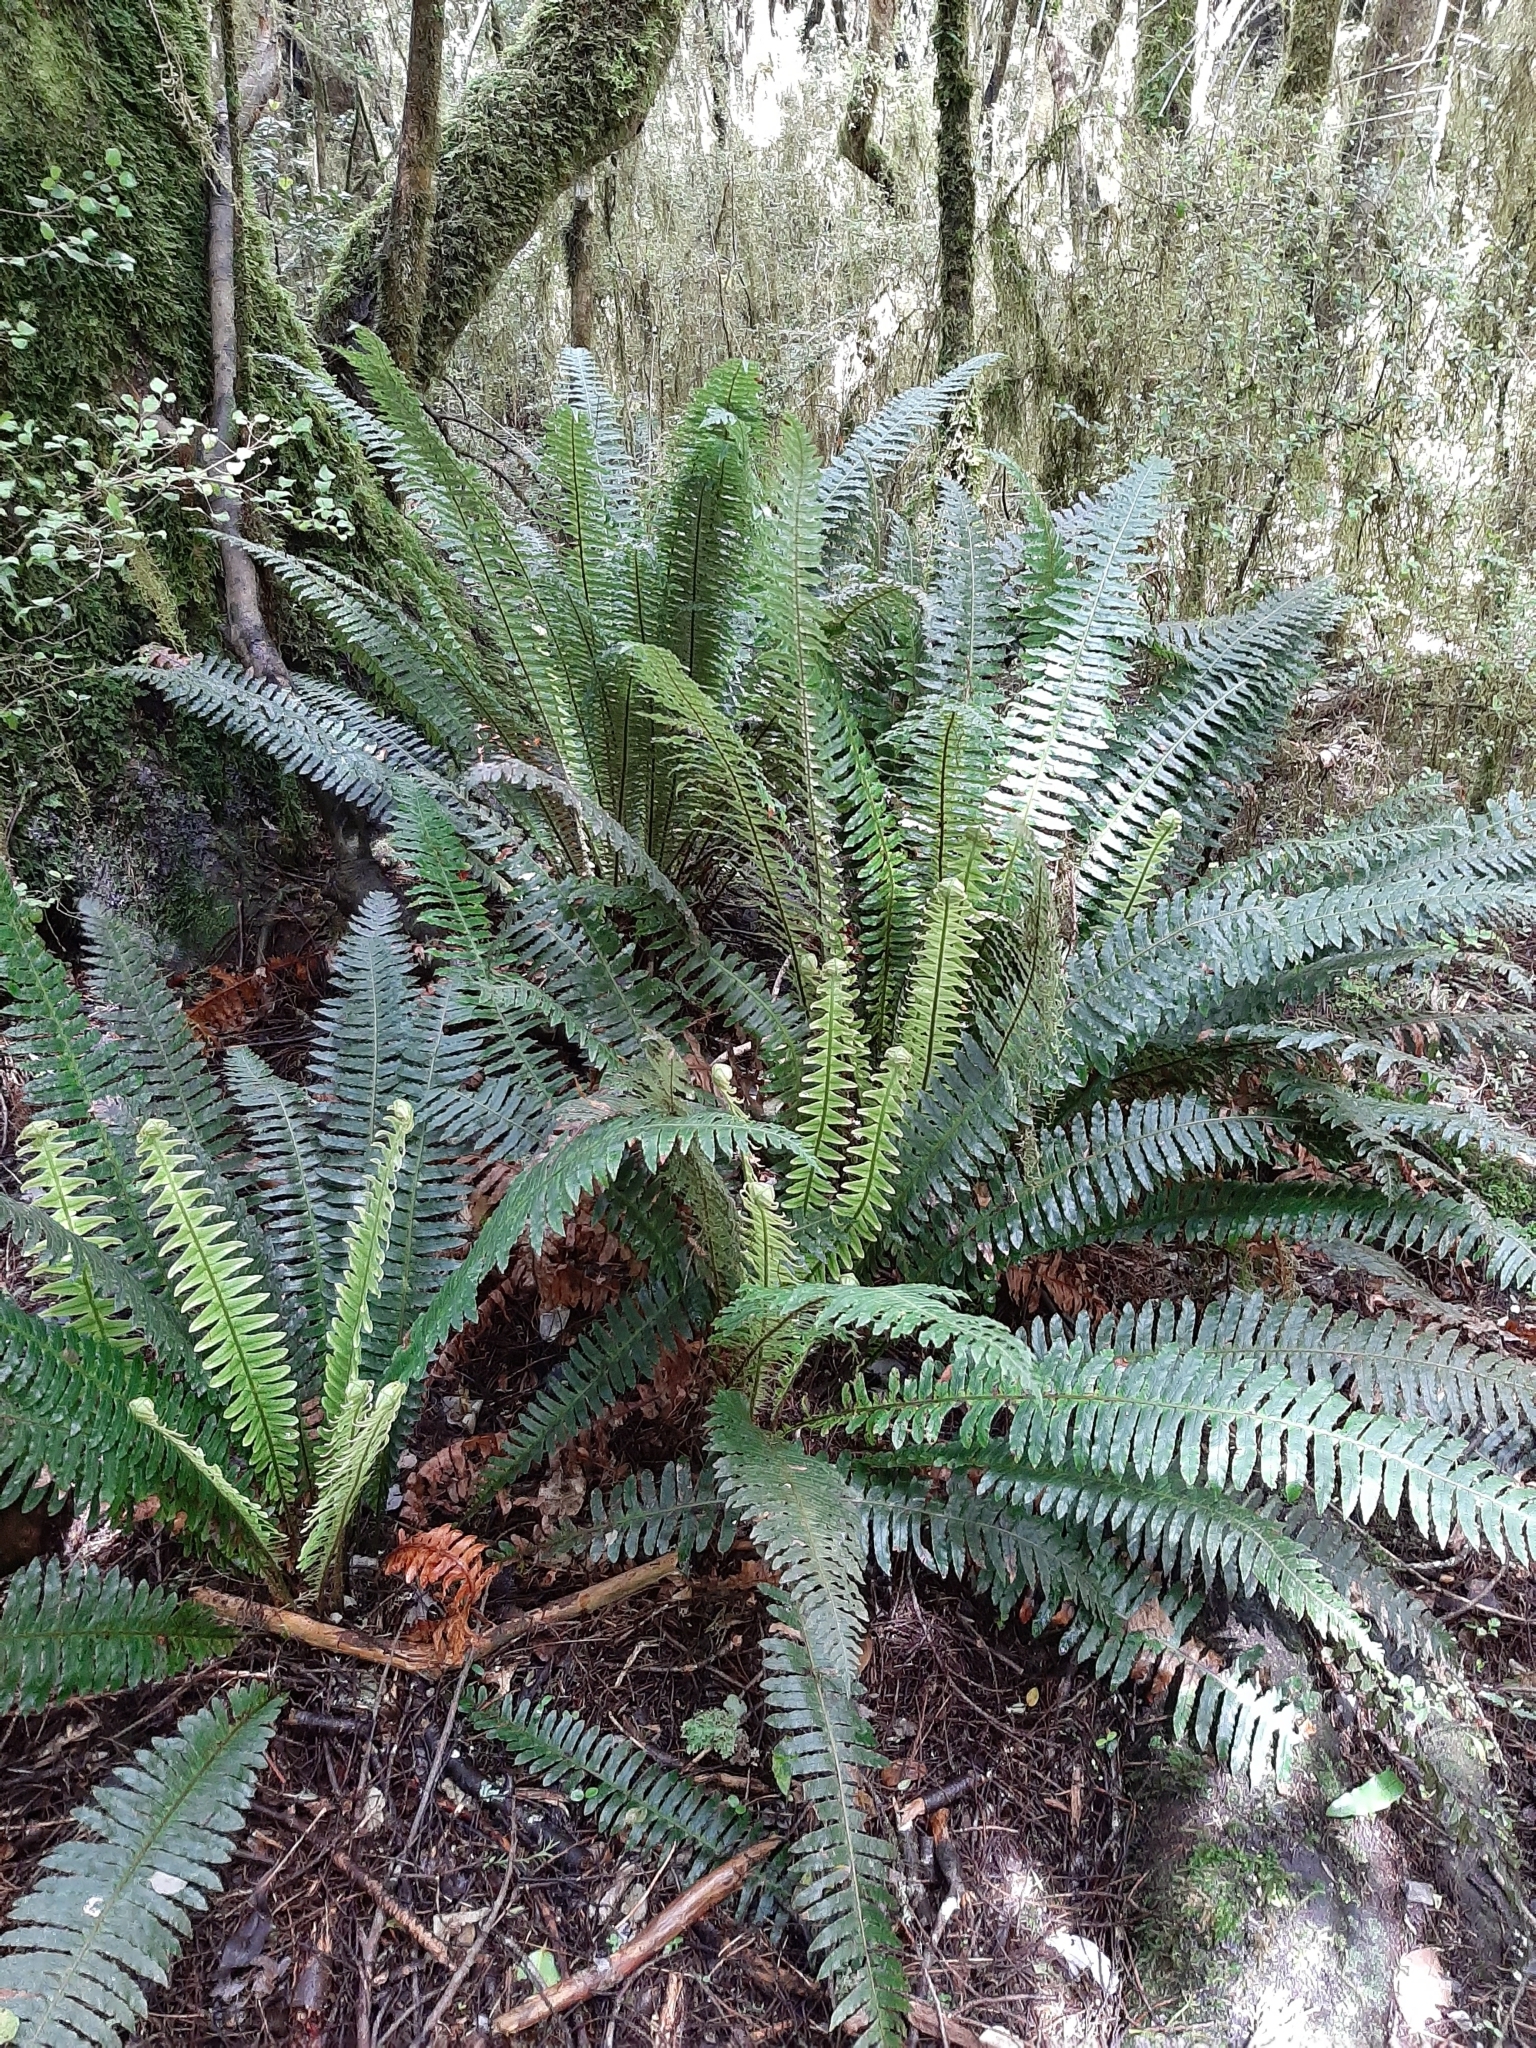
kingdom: Plantae
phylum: Tracheophyta
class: Polypodiopsida
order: Polypodiales
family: Blechnaceae
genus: Lomaria
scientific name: Lomaria discolor
